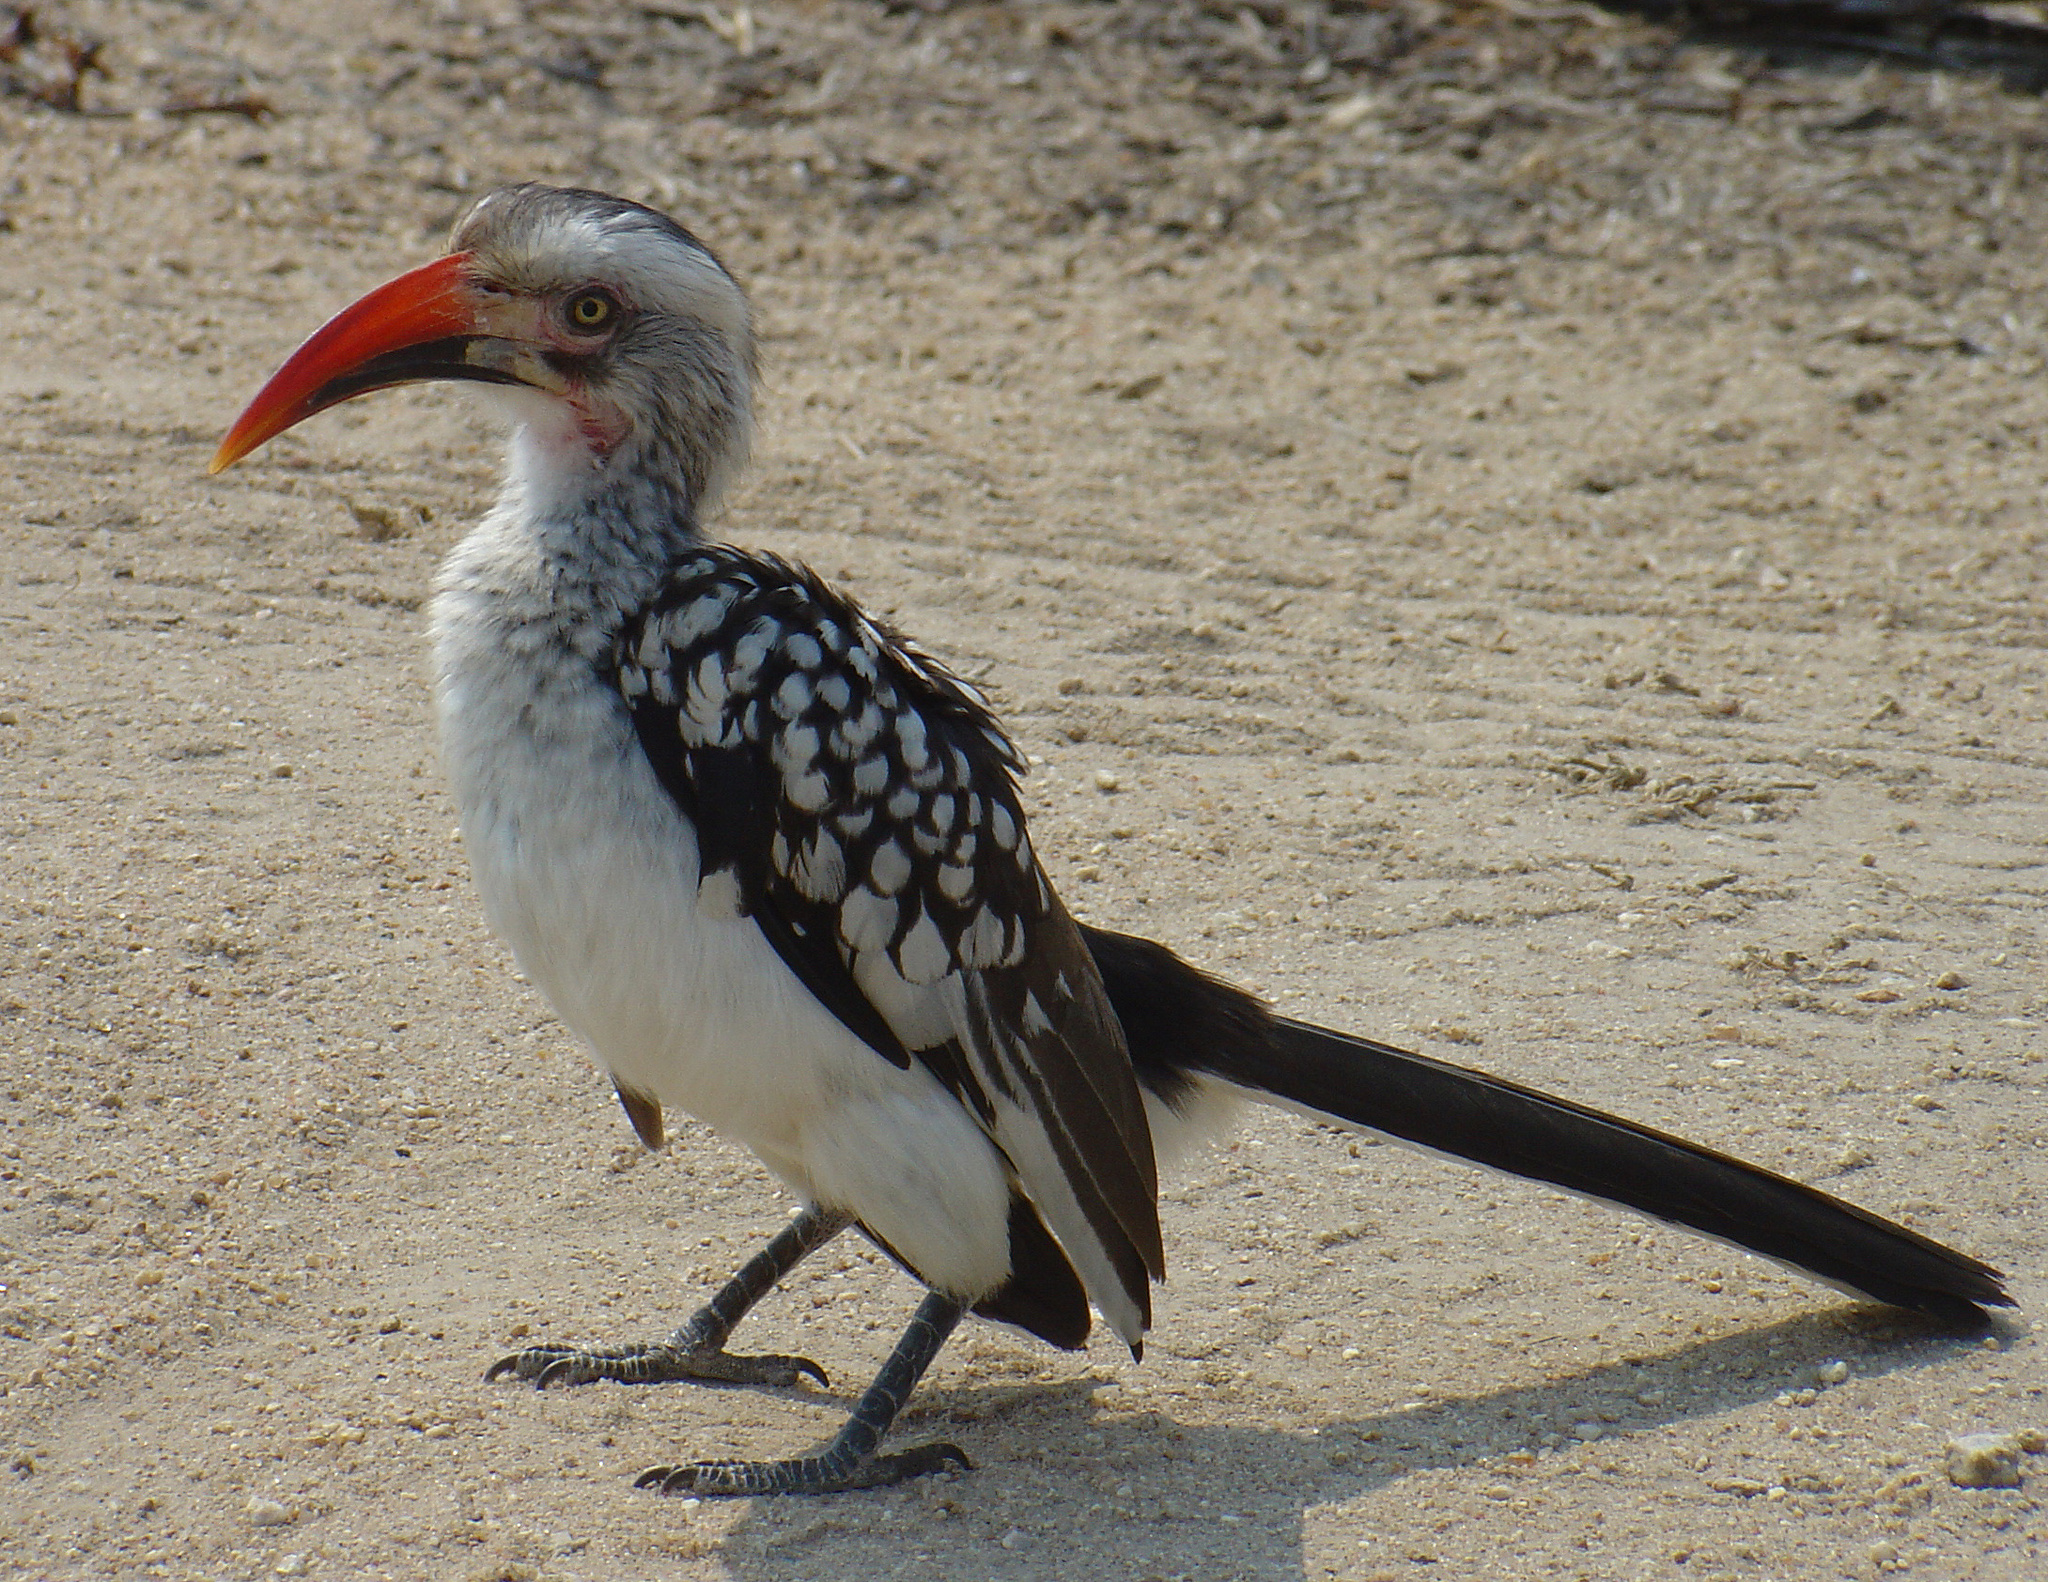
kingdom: Animalia
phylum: Chordata
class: Aves
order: Bucerotiformes
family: Bucerotidae
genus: Tockus
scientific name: Tockus rufirostris
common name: Southern red-billed hornbill
